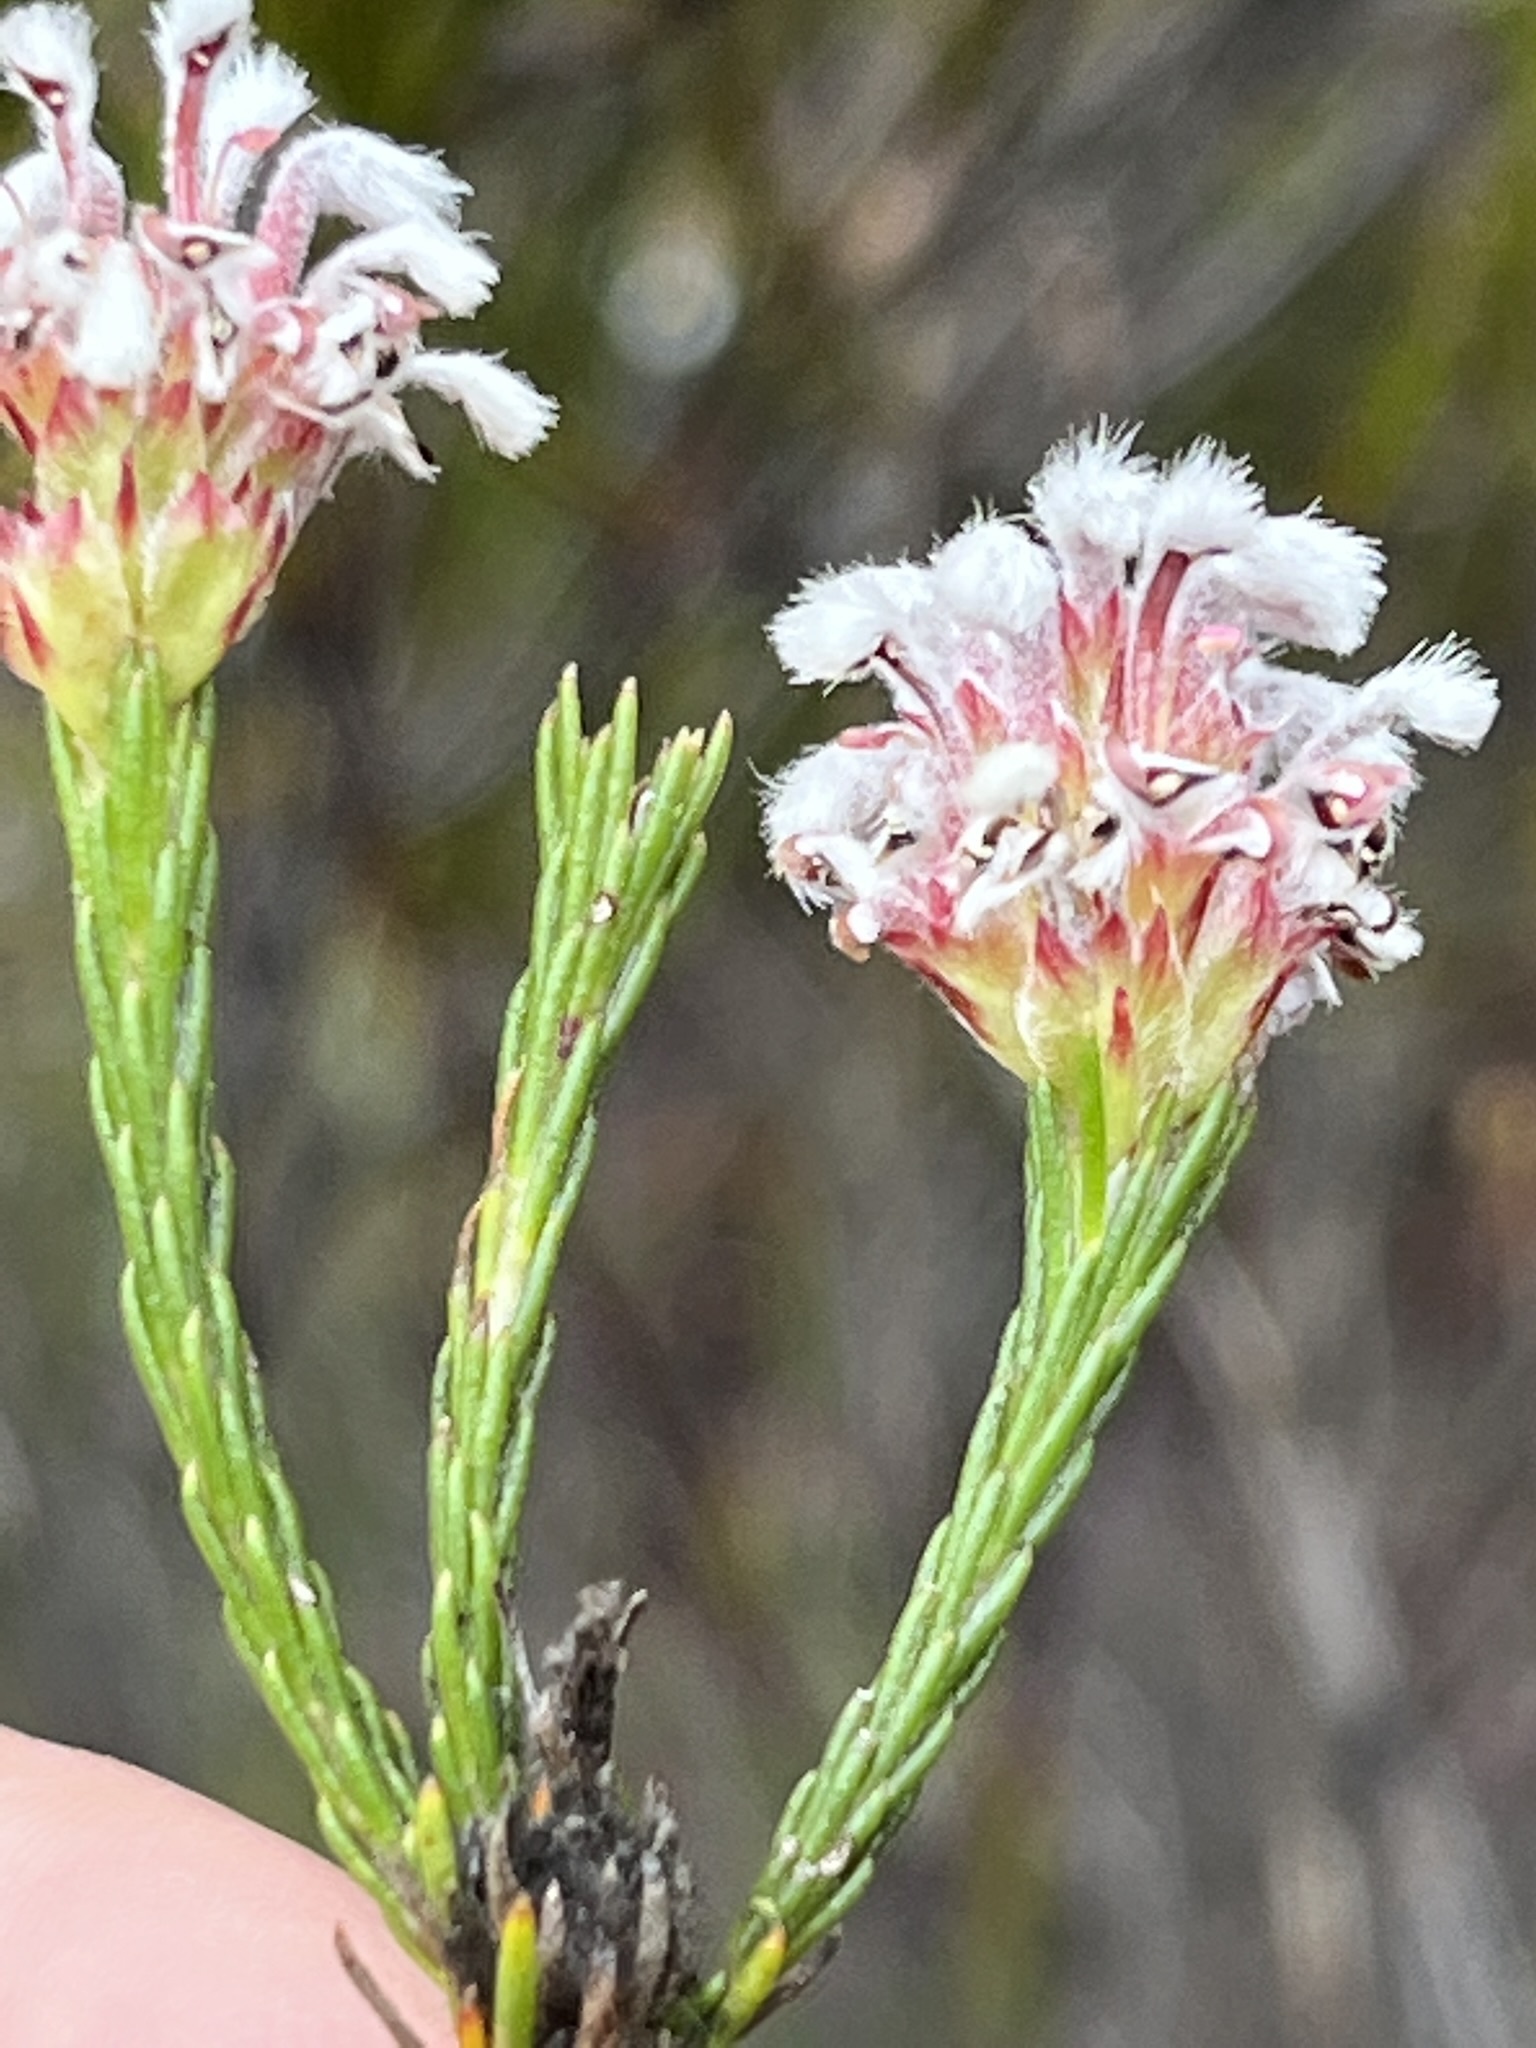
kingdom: Plantae
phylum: Tracheophyta
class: Magnoliopsida
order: Proteales
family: Proteaceae
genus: Spatalla
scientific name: Spatalla squamata
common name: Silky spoon
